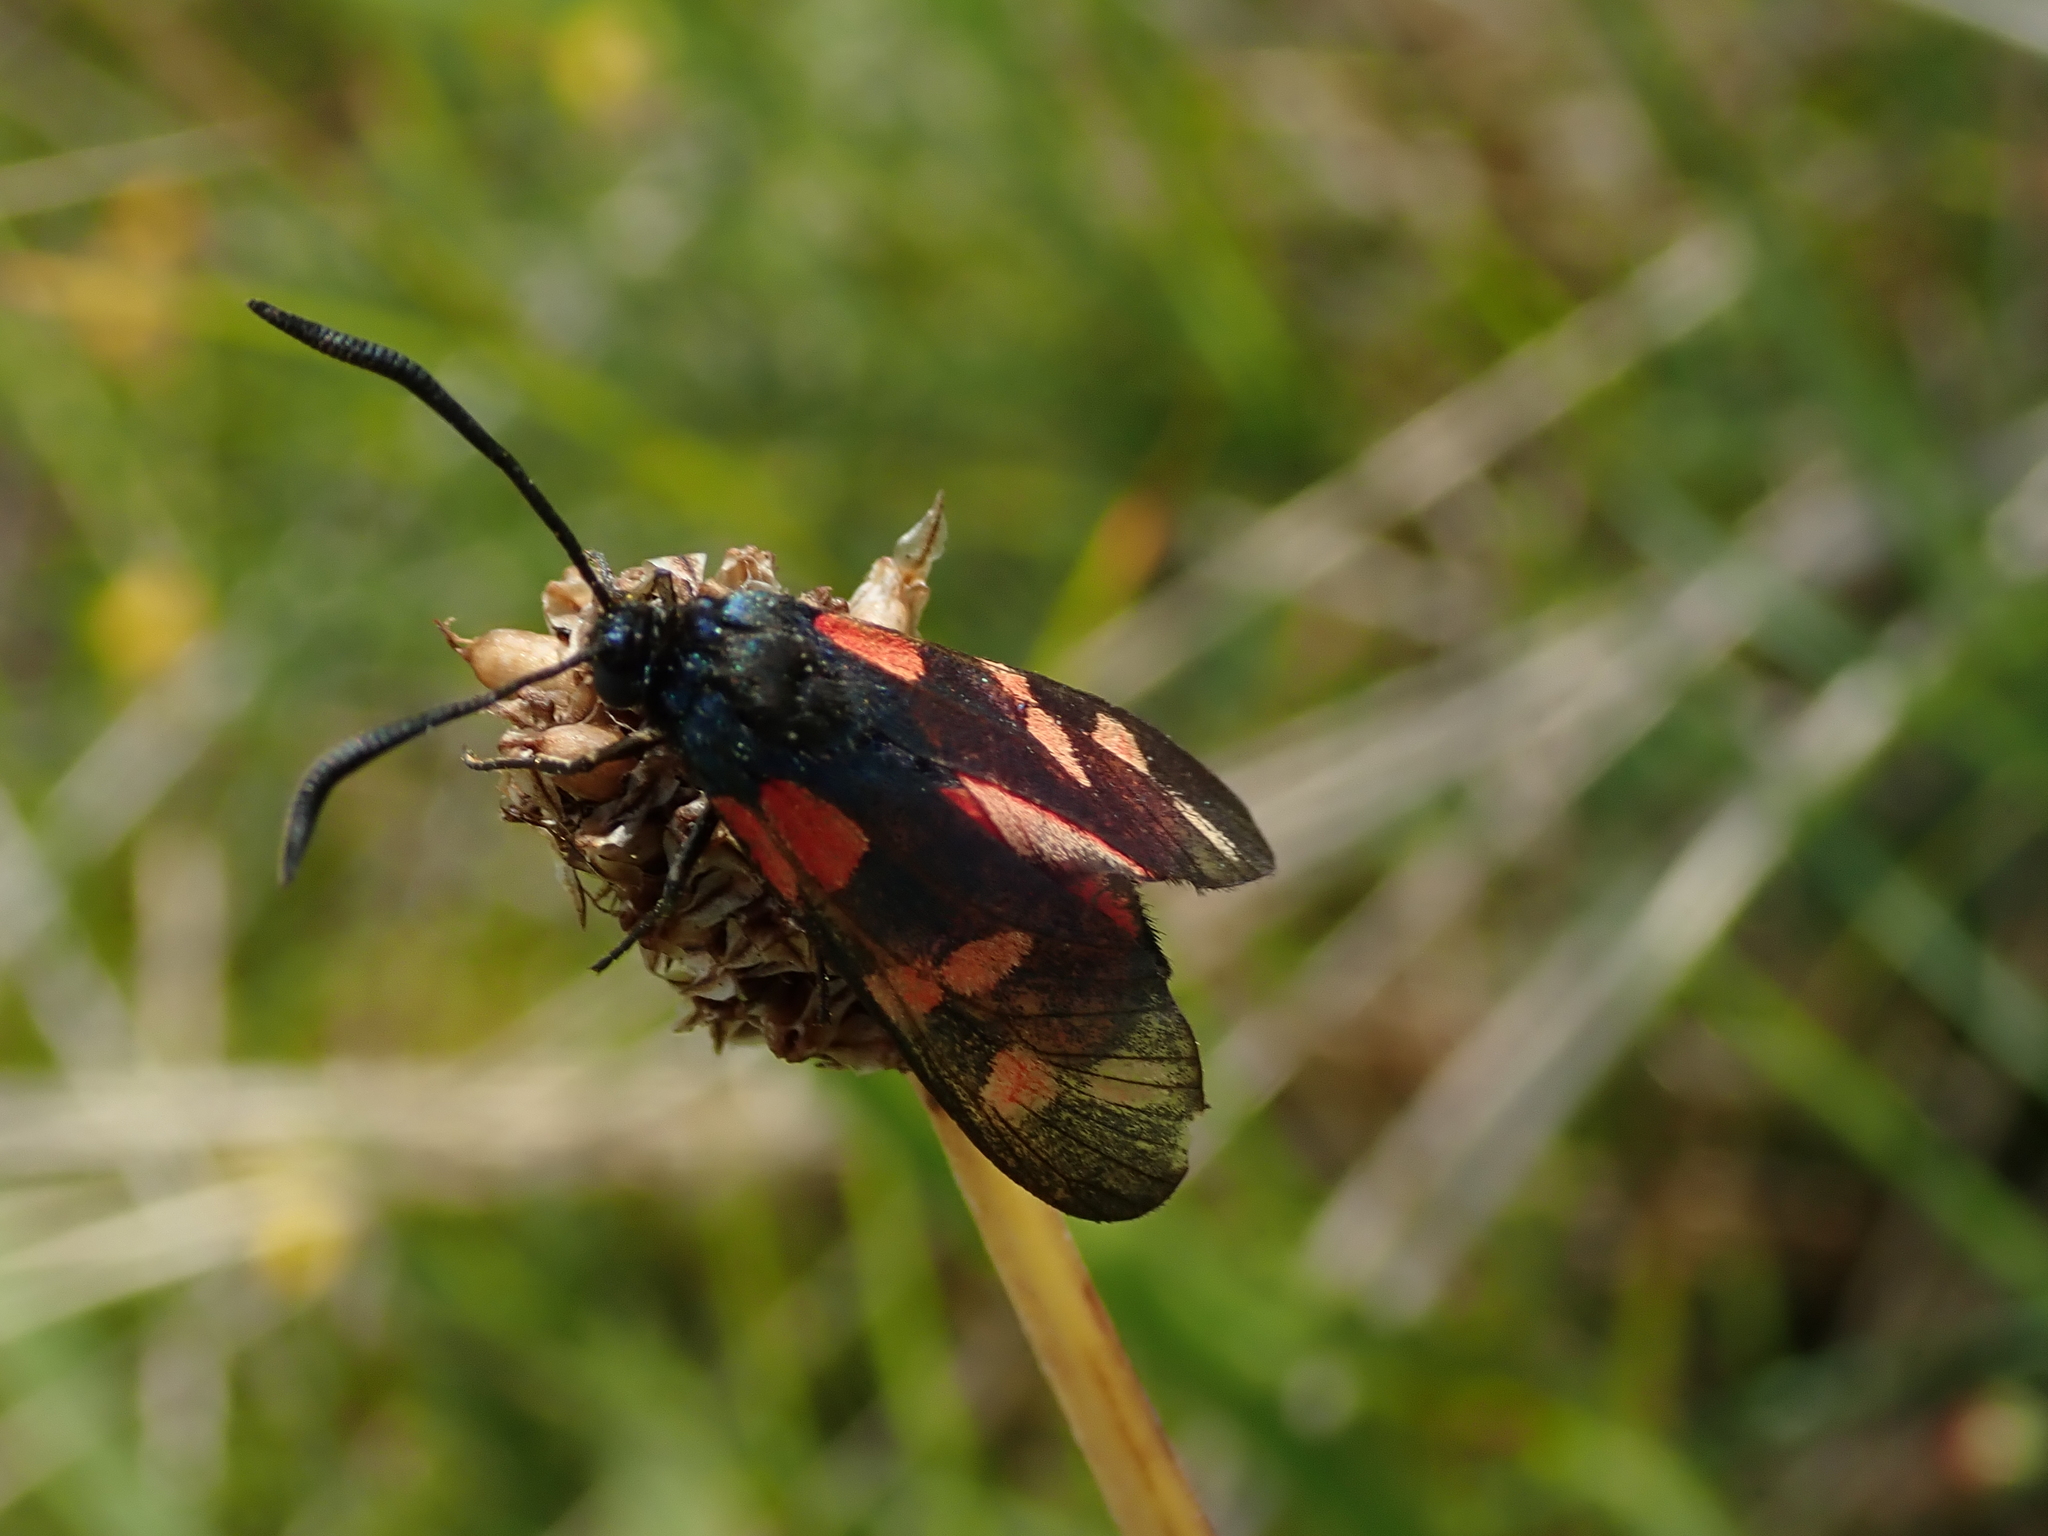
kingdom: Animalia
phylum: Arthropoda
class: Insecta
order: Lepidoptera
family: Zygaenidae
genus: Zygaena
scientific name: Zygaena filipendulae
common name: Six-spot burnet
